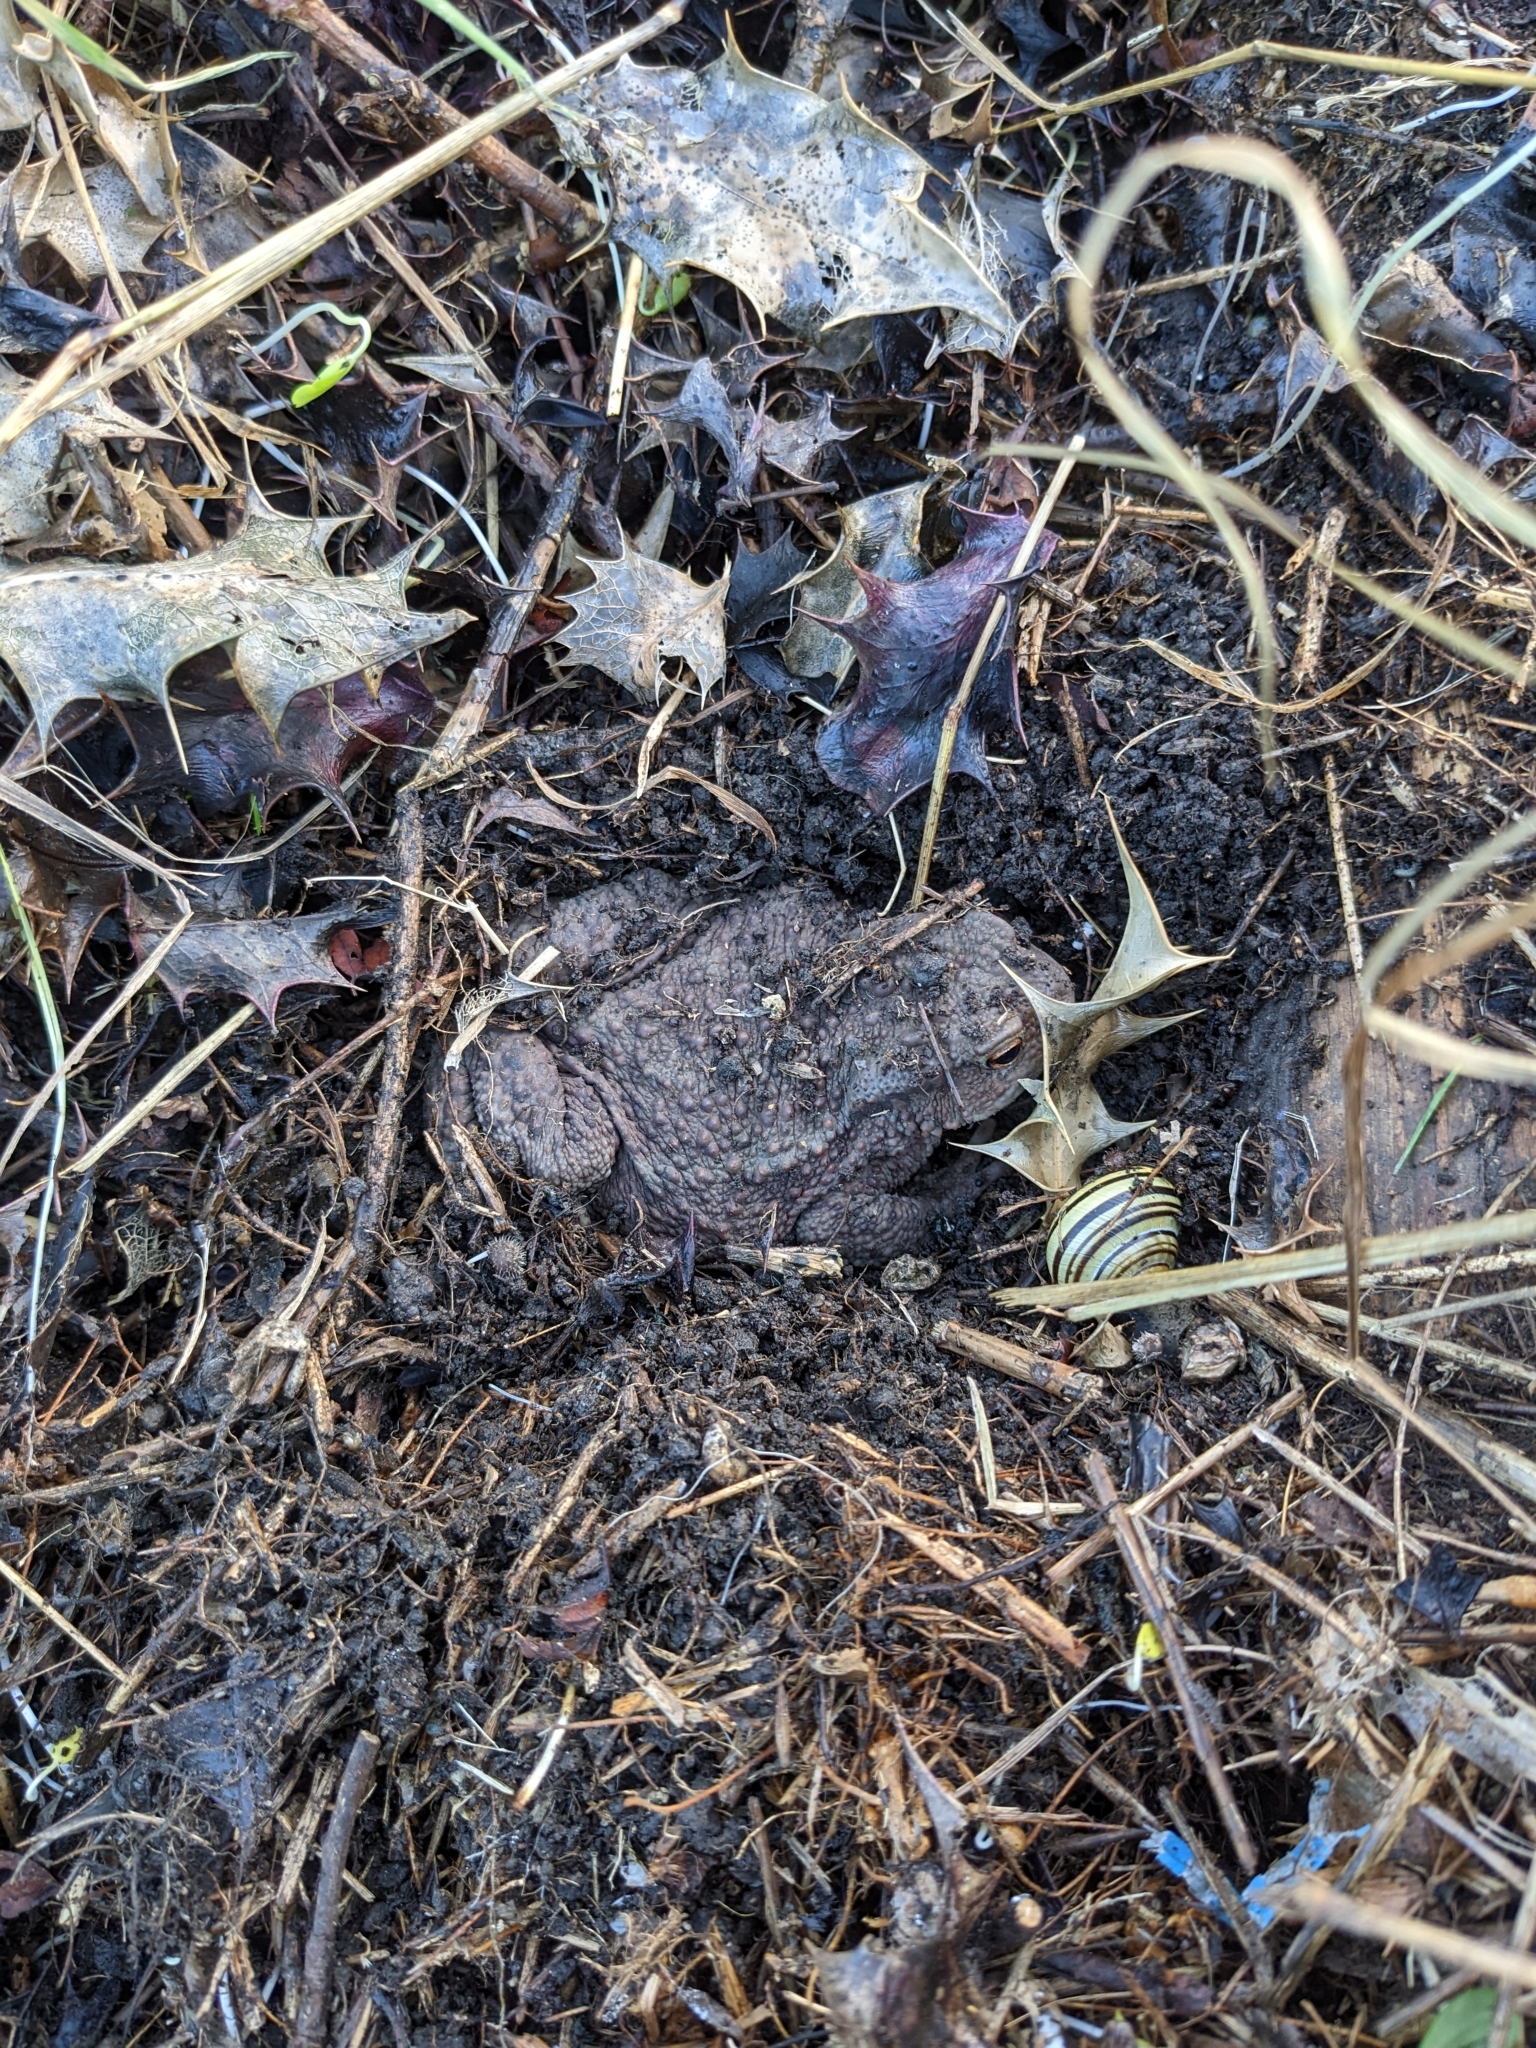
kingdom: Animalia
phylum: Chordata
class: Amphibia
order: Anura
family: Bufonidae
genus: Bufo
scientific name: Bufo bufo
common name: Common toad
